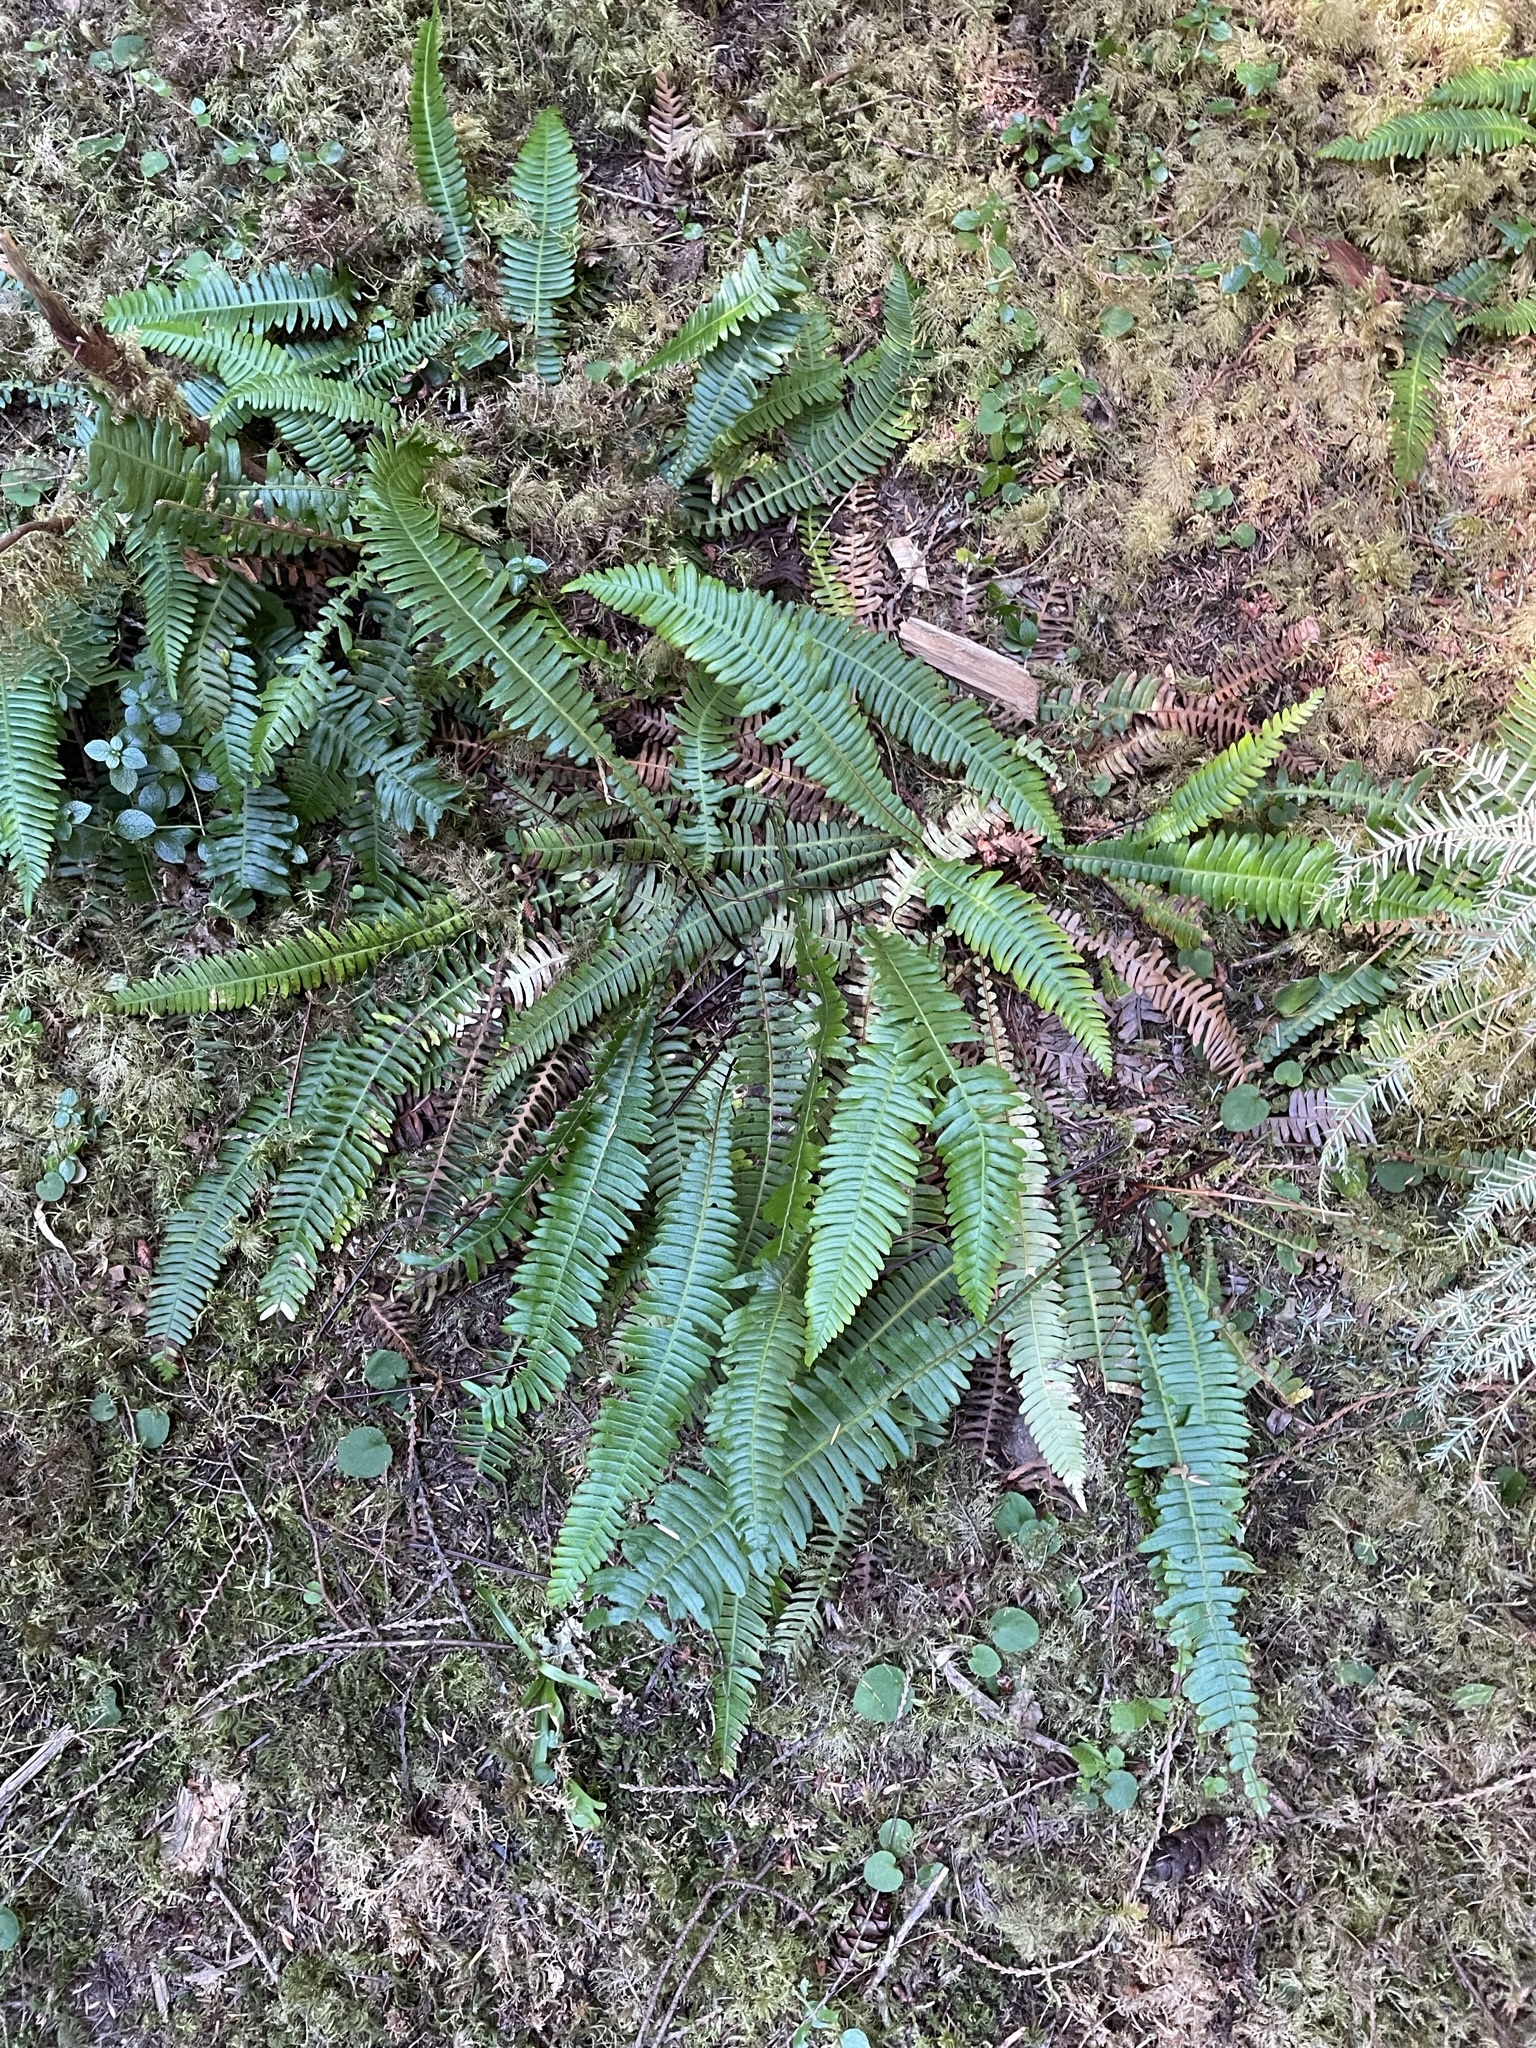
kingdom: Plantae
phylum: Tracheophyta
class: Polypodiopsida
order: Polypodiales
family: Blechnaceae
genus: Struthiopteris
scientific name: Struthiopteris spicant
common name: Deer fern
